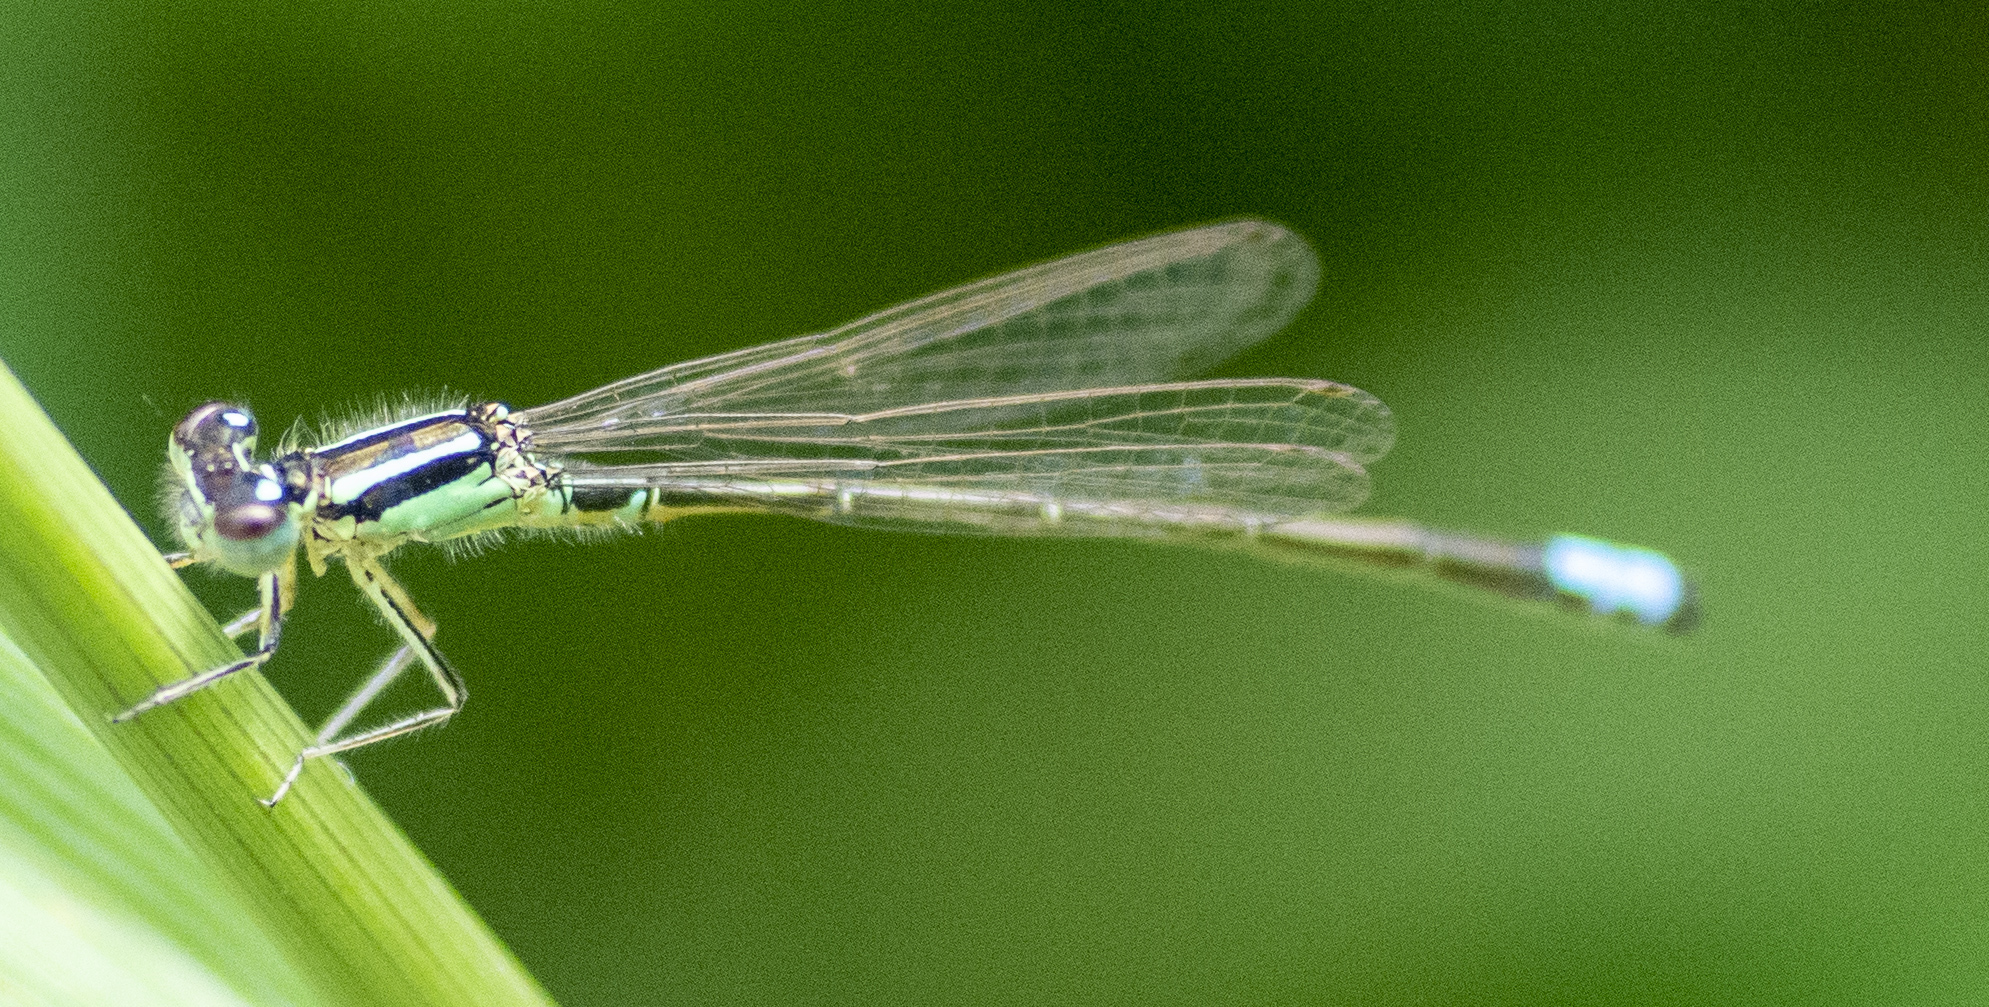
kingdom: Animalia
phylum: Arthropoda
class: Insecta
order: Odonata
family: Coenagrionidae
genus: Ischnura
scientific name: Ischnura verticalis
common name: Eastern forktail
